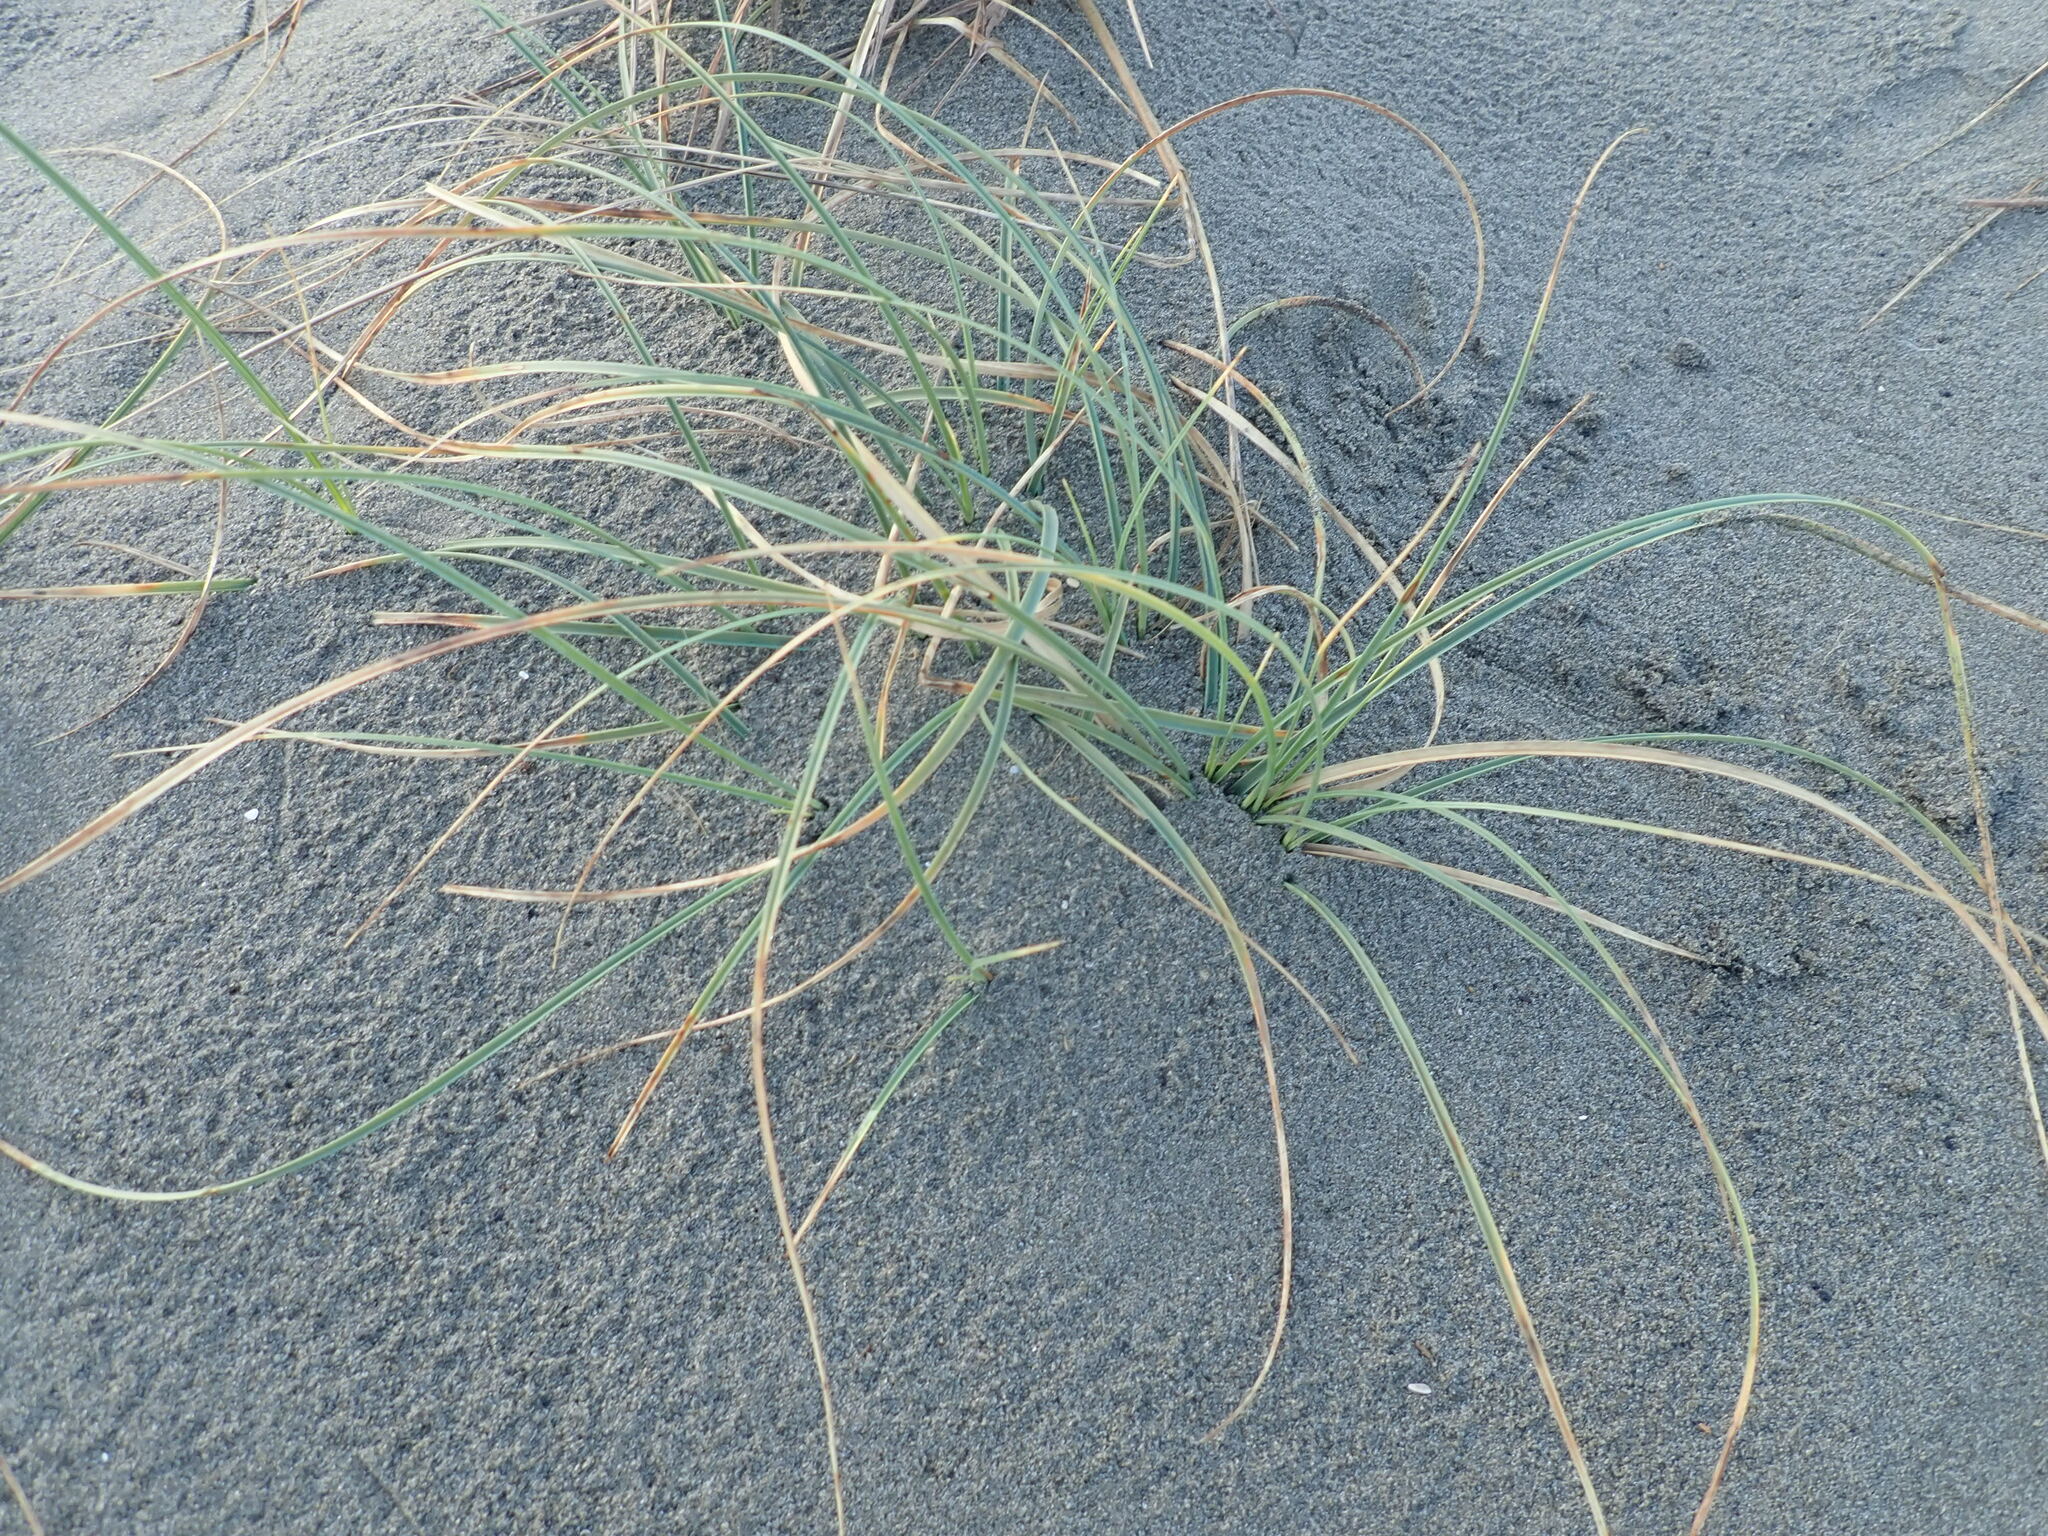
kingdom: Plantae
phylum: Tracheophyta
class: Liliopsida
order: Poales
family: Cyperaceae
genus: Carex
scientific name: Carex pumila
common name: Dwarf sedge
